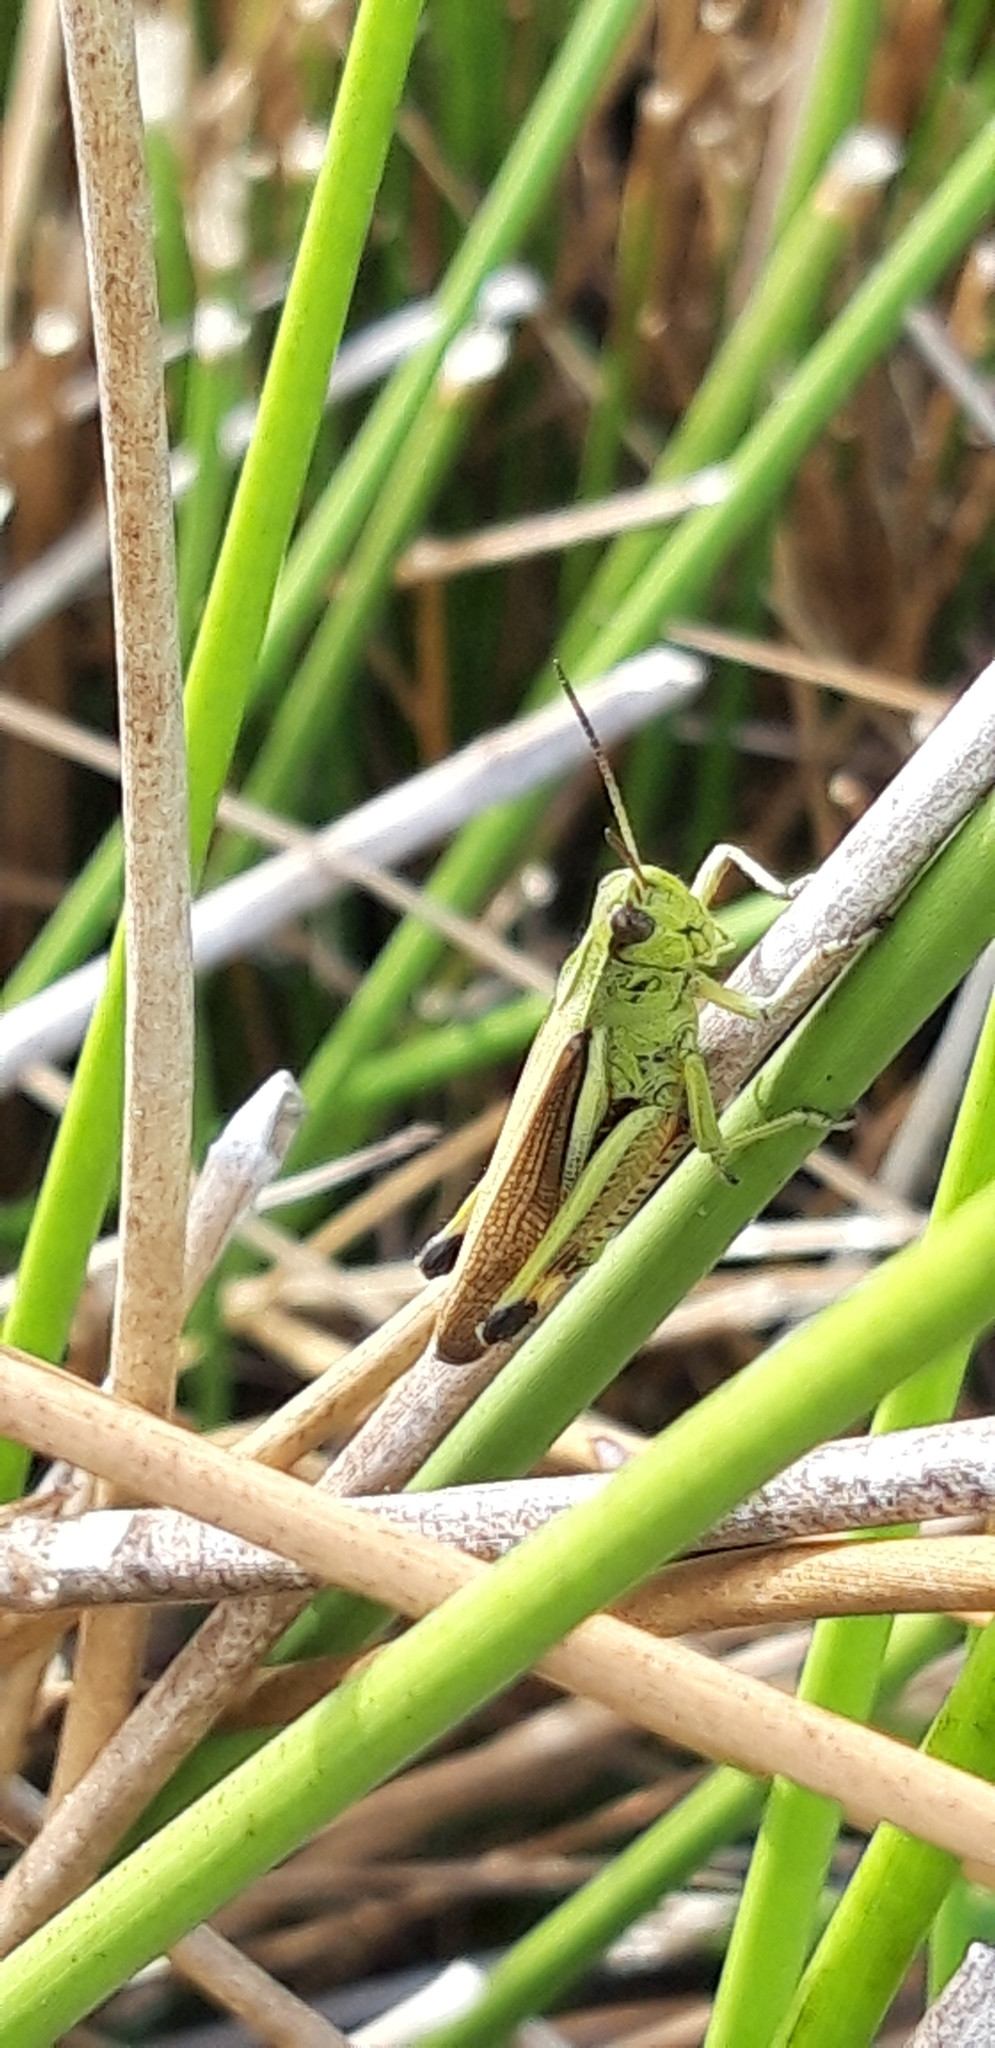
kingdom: Animalia
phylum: Arthropoda
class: Insecta
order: Orthoptera
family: Acrididae
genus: Stethophyma
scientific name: Stethophyma grossum
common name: Large marsh grasshopper
